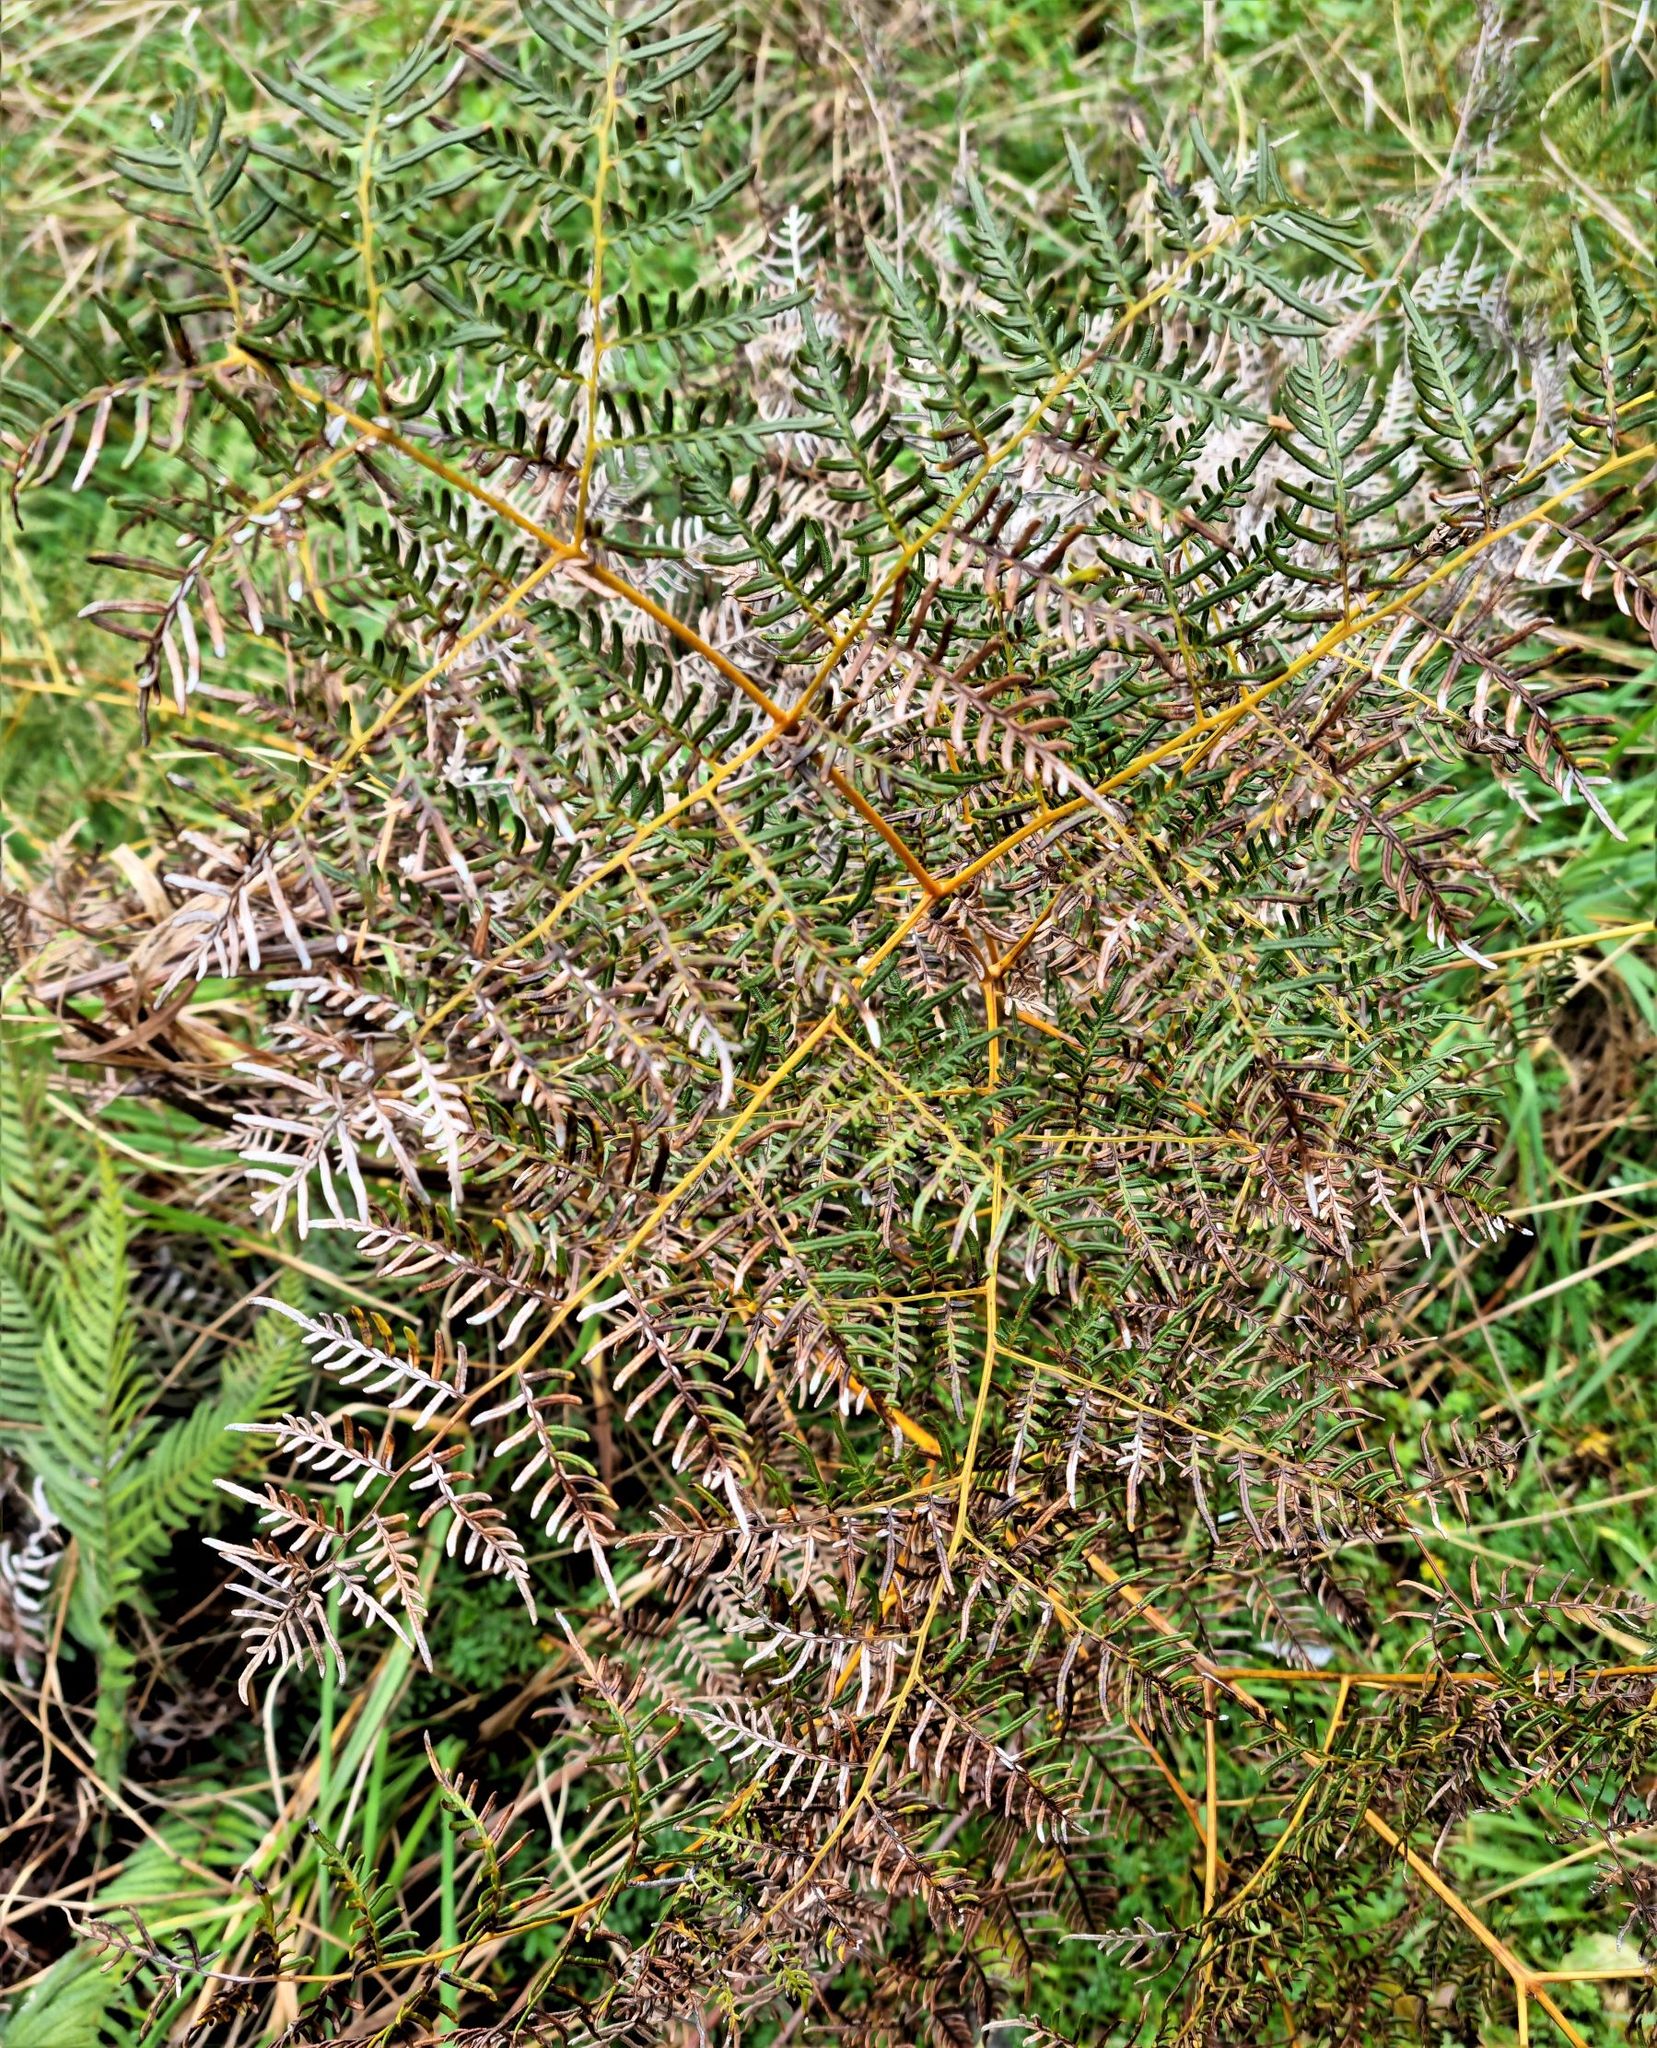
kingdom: Plantae
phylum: Tracheophyta
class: Polypodiopsida
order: Polypodiales
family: Dennstaedtiaceae
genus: Pteridium
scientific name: Pteridium esculentum
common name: Bracken fern
